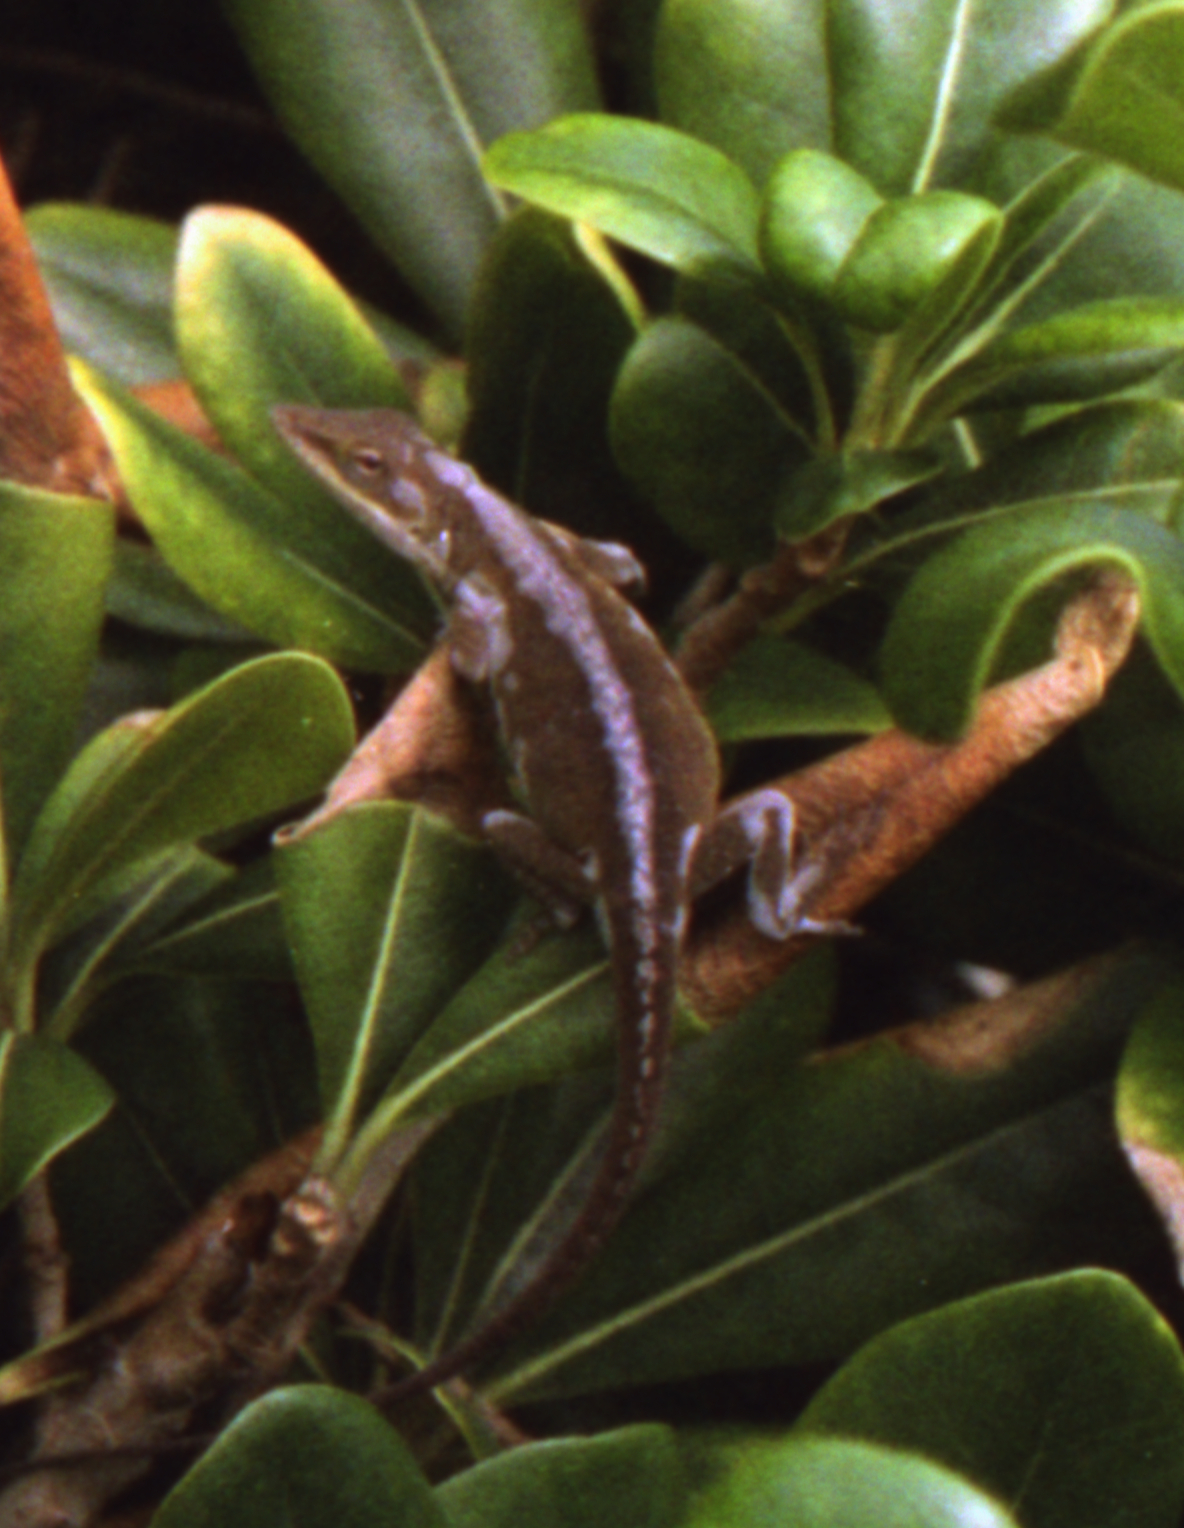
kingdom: Animalia
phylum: Chordata
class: Squamata
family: Dactyloidae
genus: Anolis
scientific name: Anolis carolinensis
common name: Green anole
